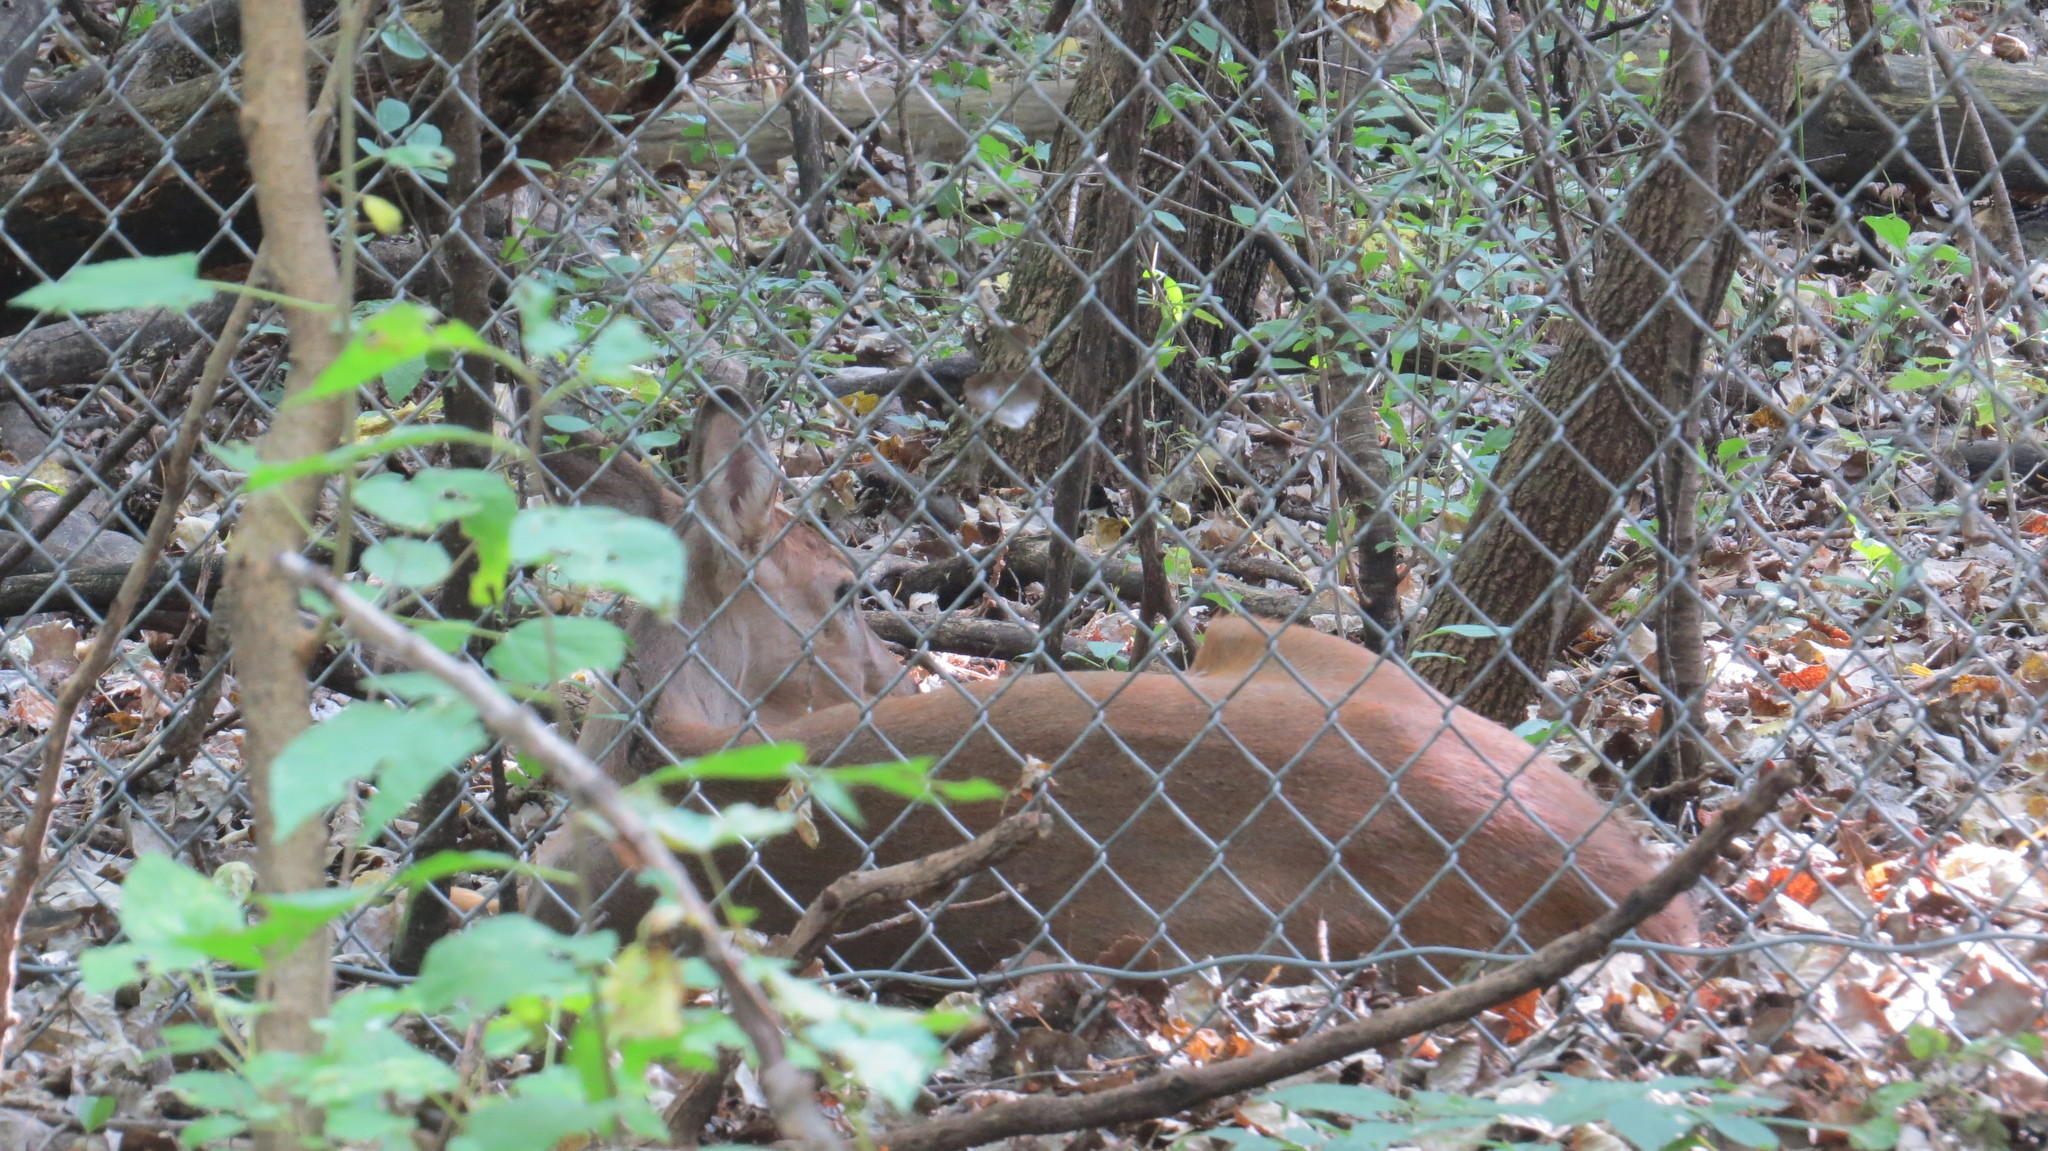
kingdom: Animalia
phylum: Chordata
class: Mammalia
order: Artiodactyla
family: Cervidae
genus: Odocoileus
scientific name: Odocoileus virginianus
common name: White-tailed deer
